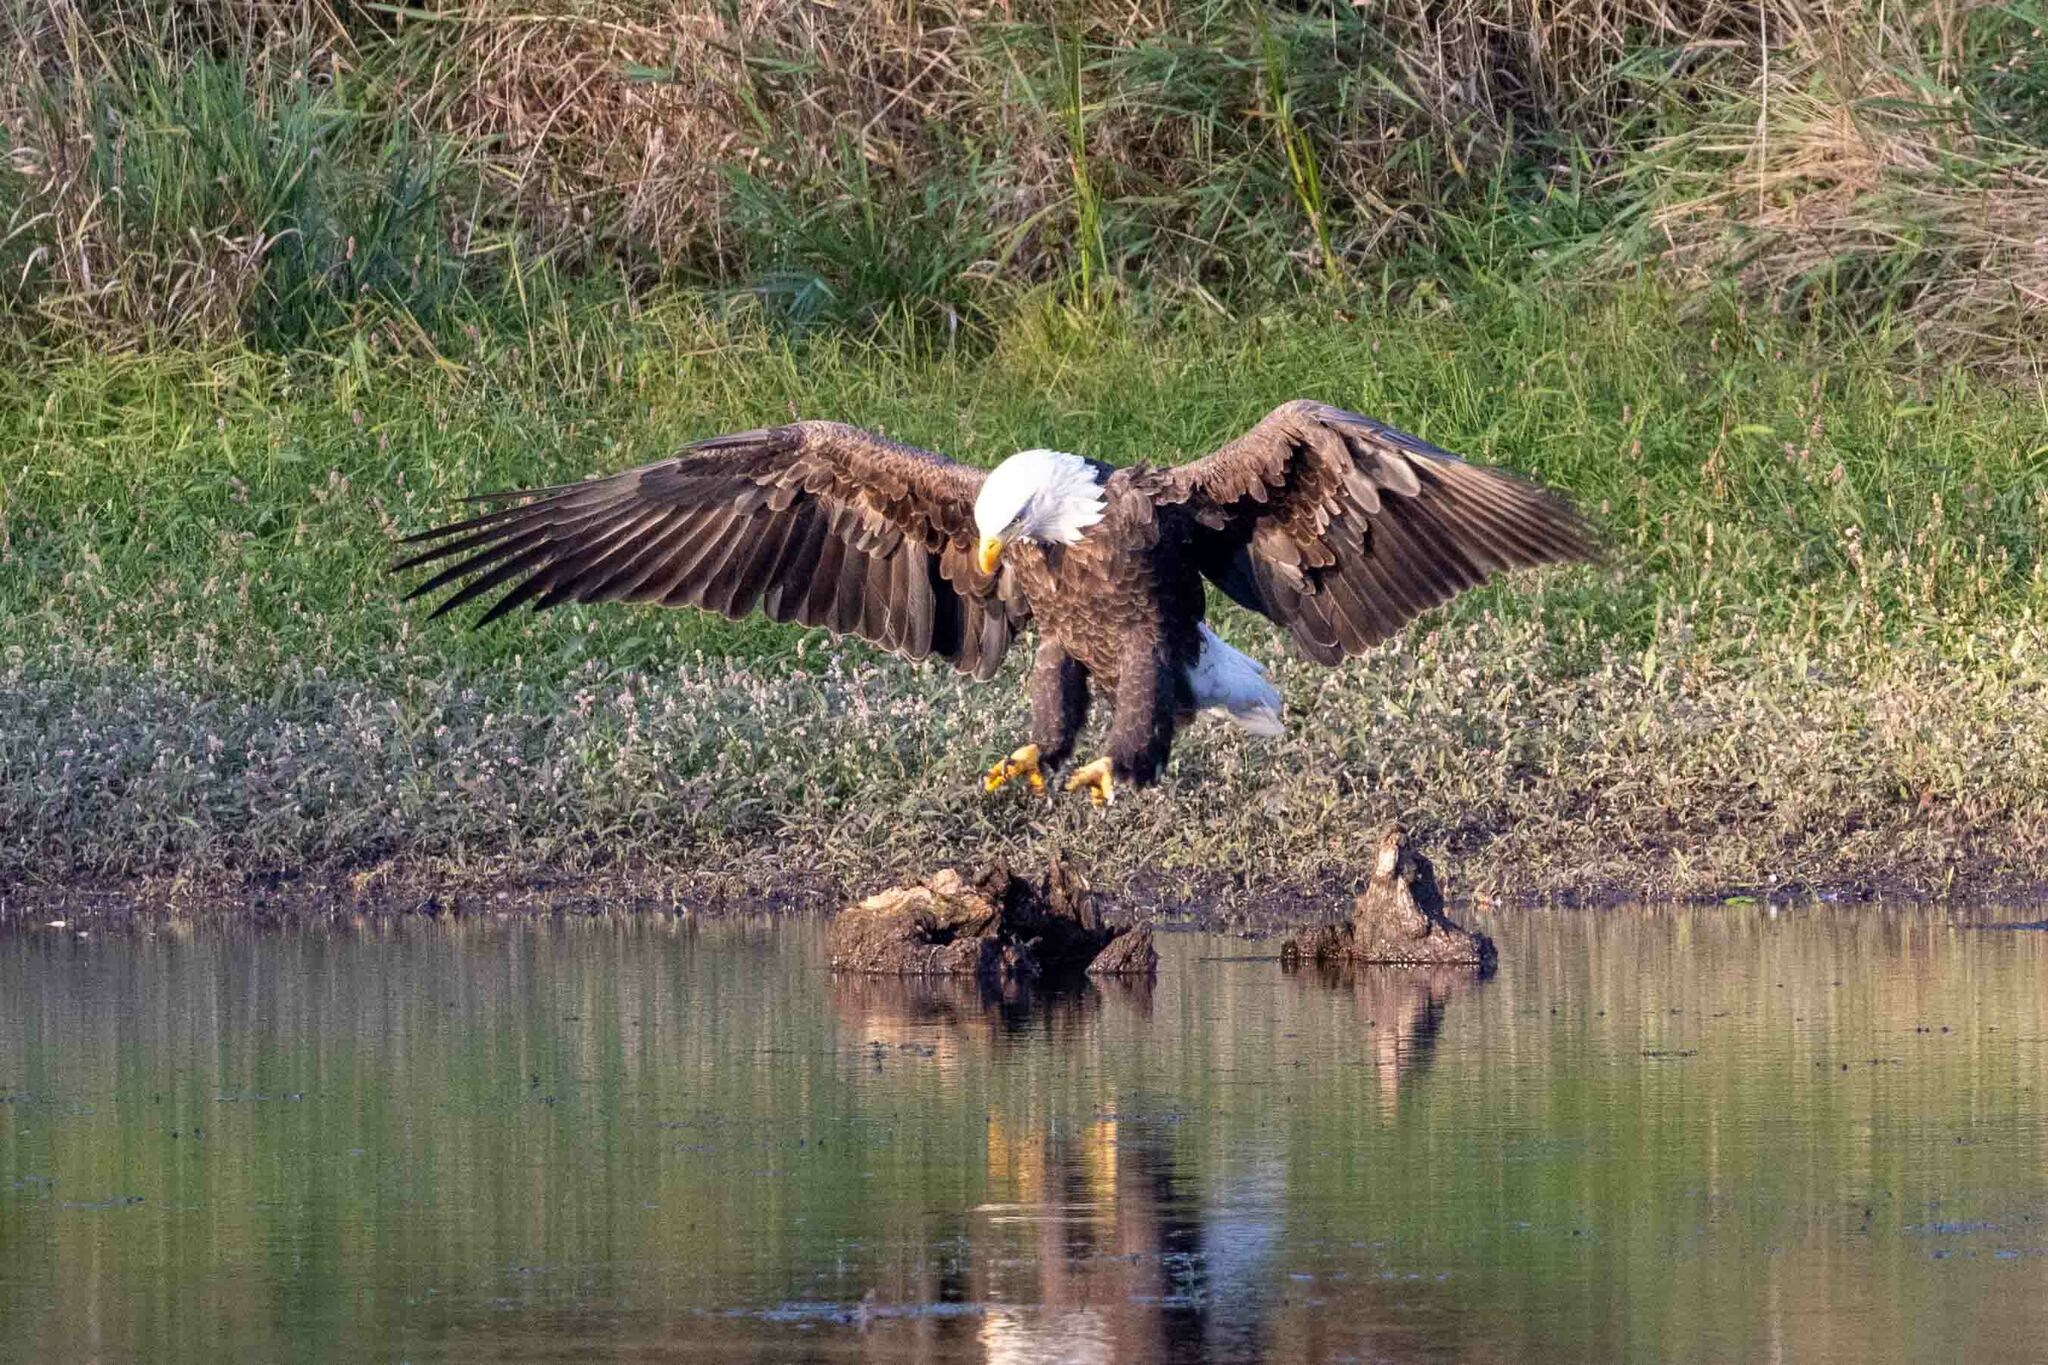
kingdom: Animalia
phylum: Chordata
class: Aves
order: Accipitriformes
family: Accipitridae
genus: Haliaeetus
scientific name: Haliaeetus leucocephalus
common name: Bald eagle
